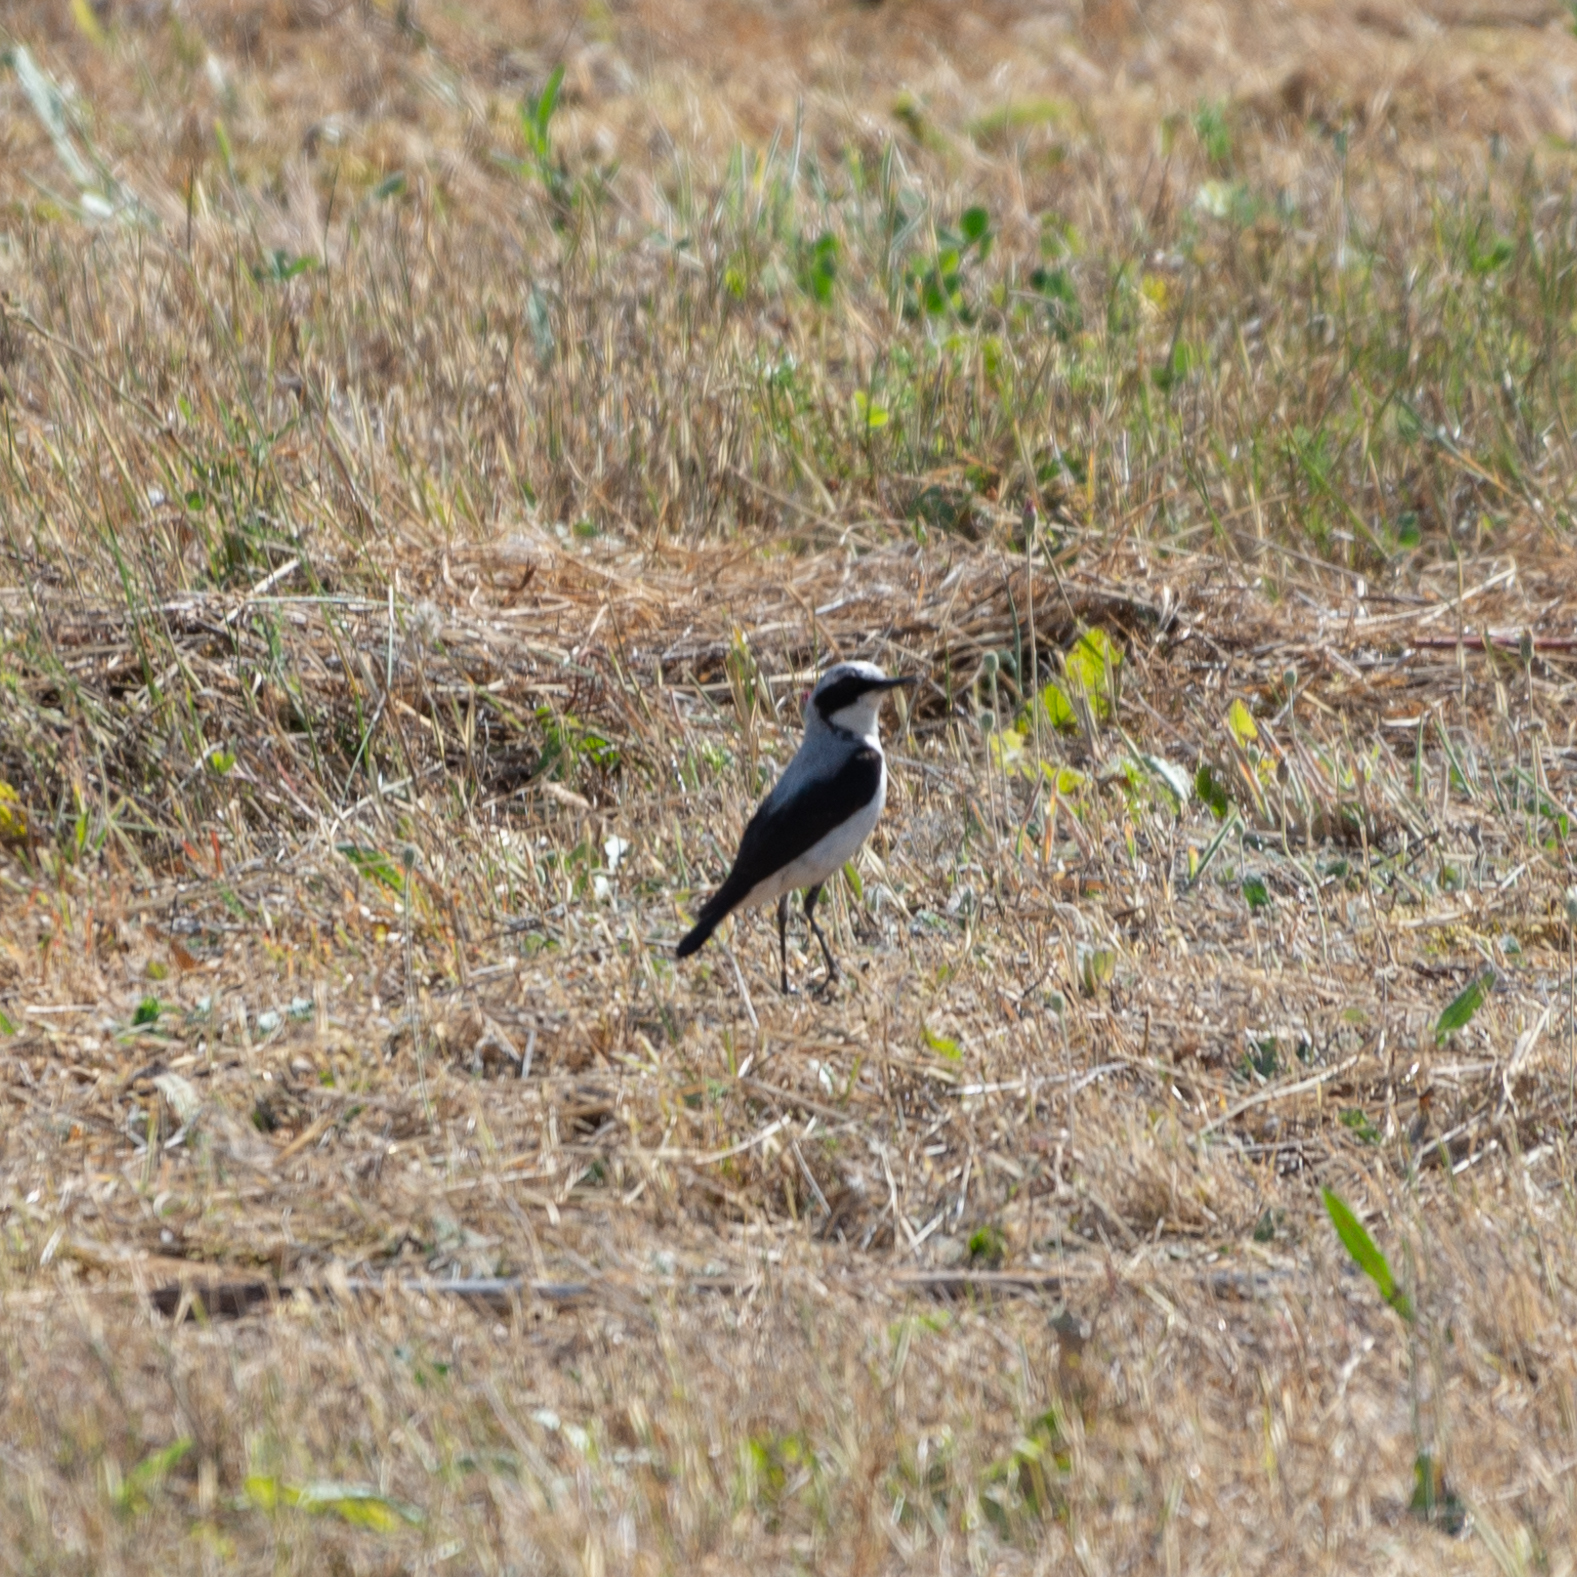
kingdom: Animalia
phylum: Chordata
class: Aves
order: Passeriformes
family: Muscicapidae
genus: Oenanthe
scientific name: Oenanthe oenanthe
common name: Northern wheatear
